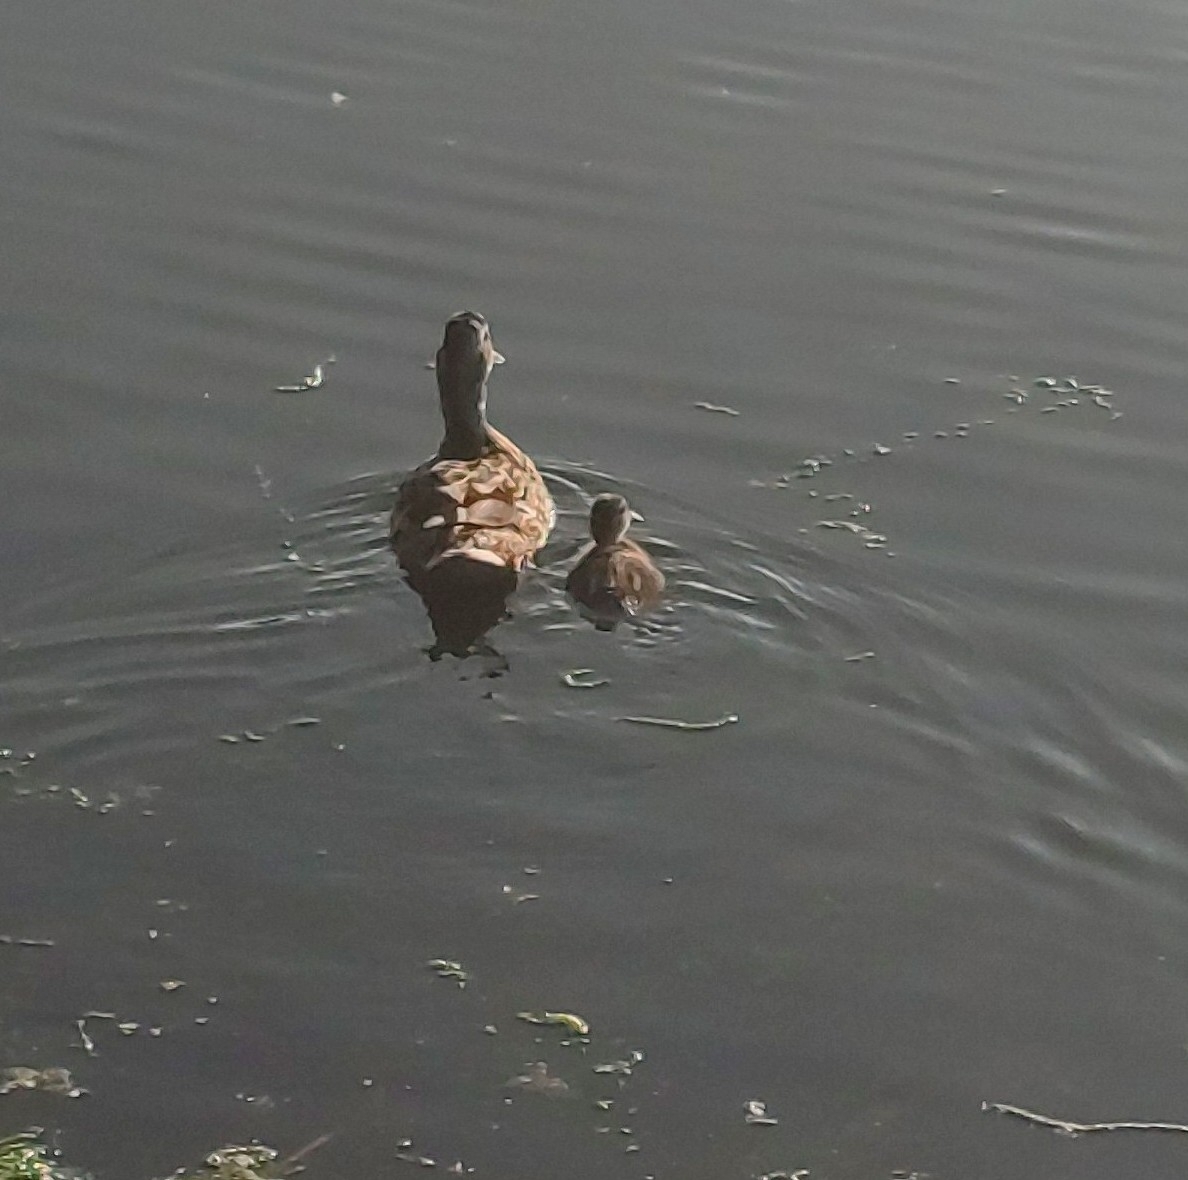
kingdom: Animalia
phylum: Chordata
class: Aves
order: Anseriformes
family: Anatidae
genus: Anas
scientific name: Anas platyrhynchos
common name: Mallard
